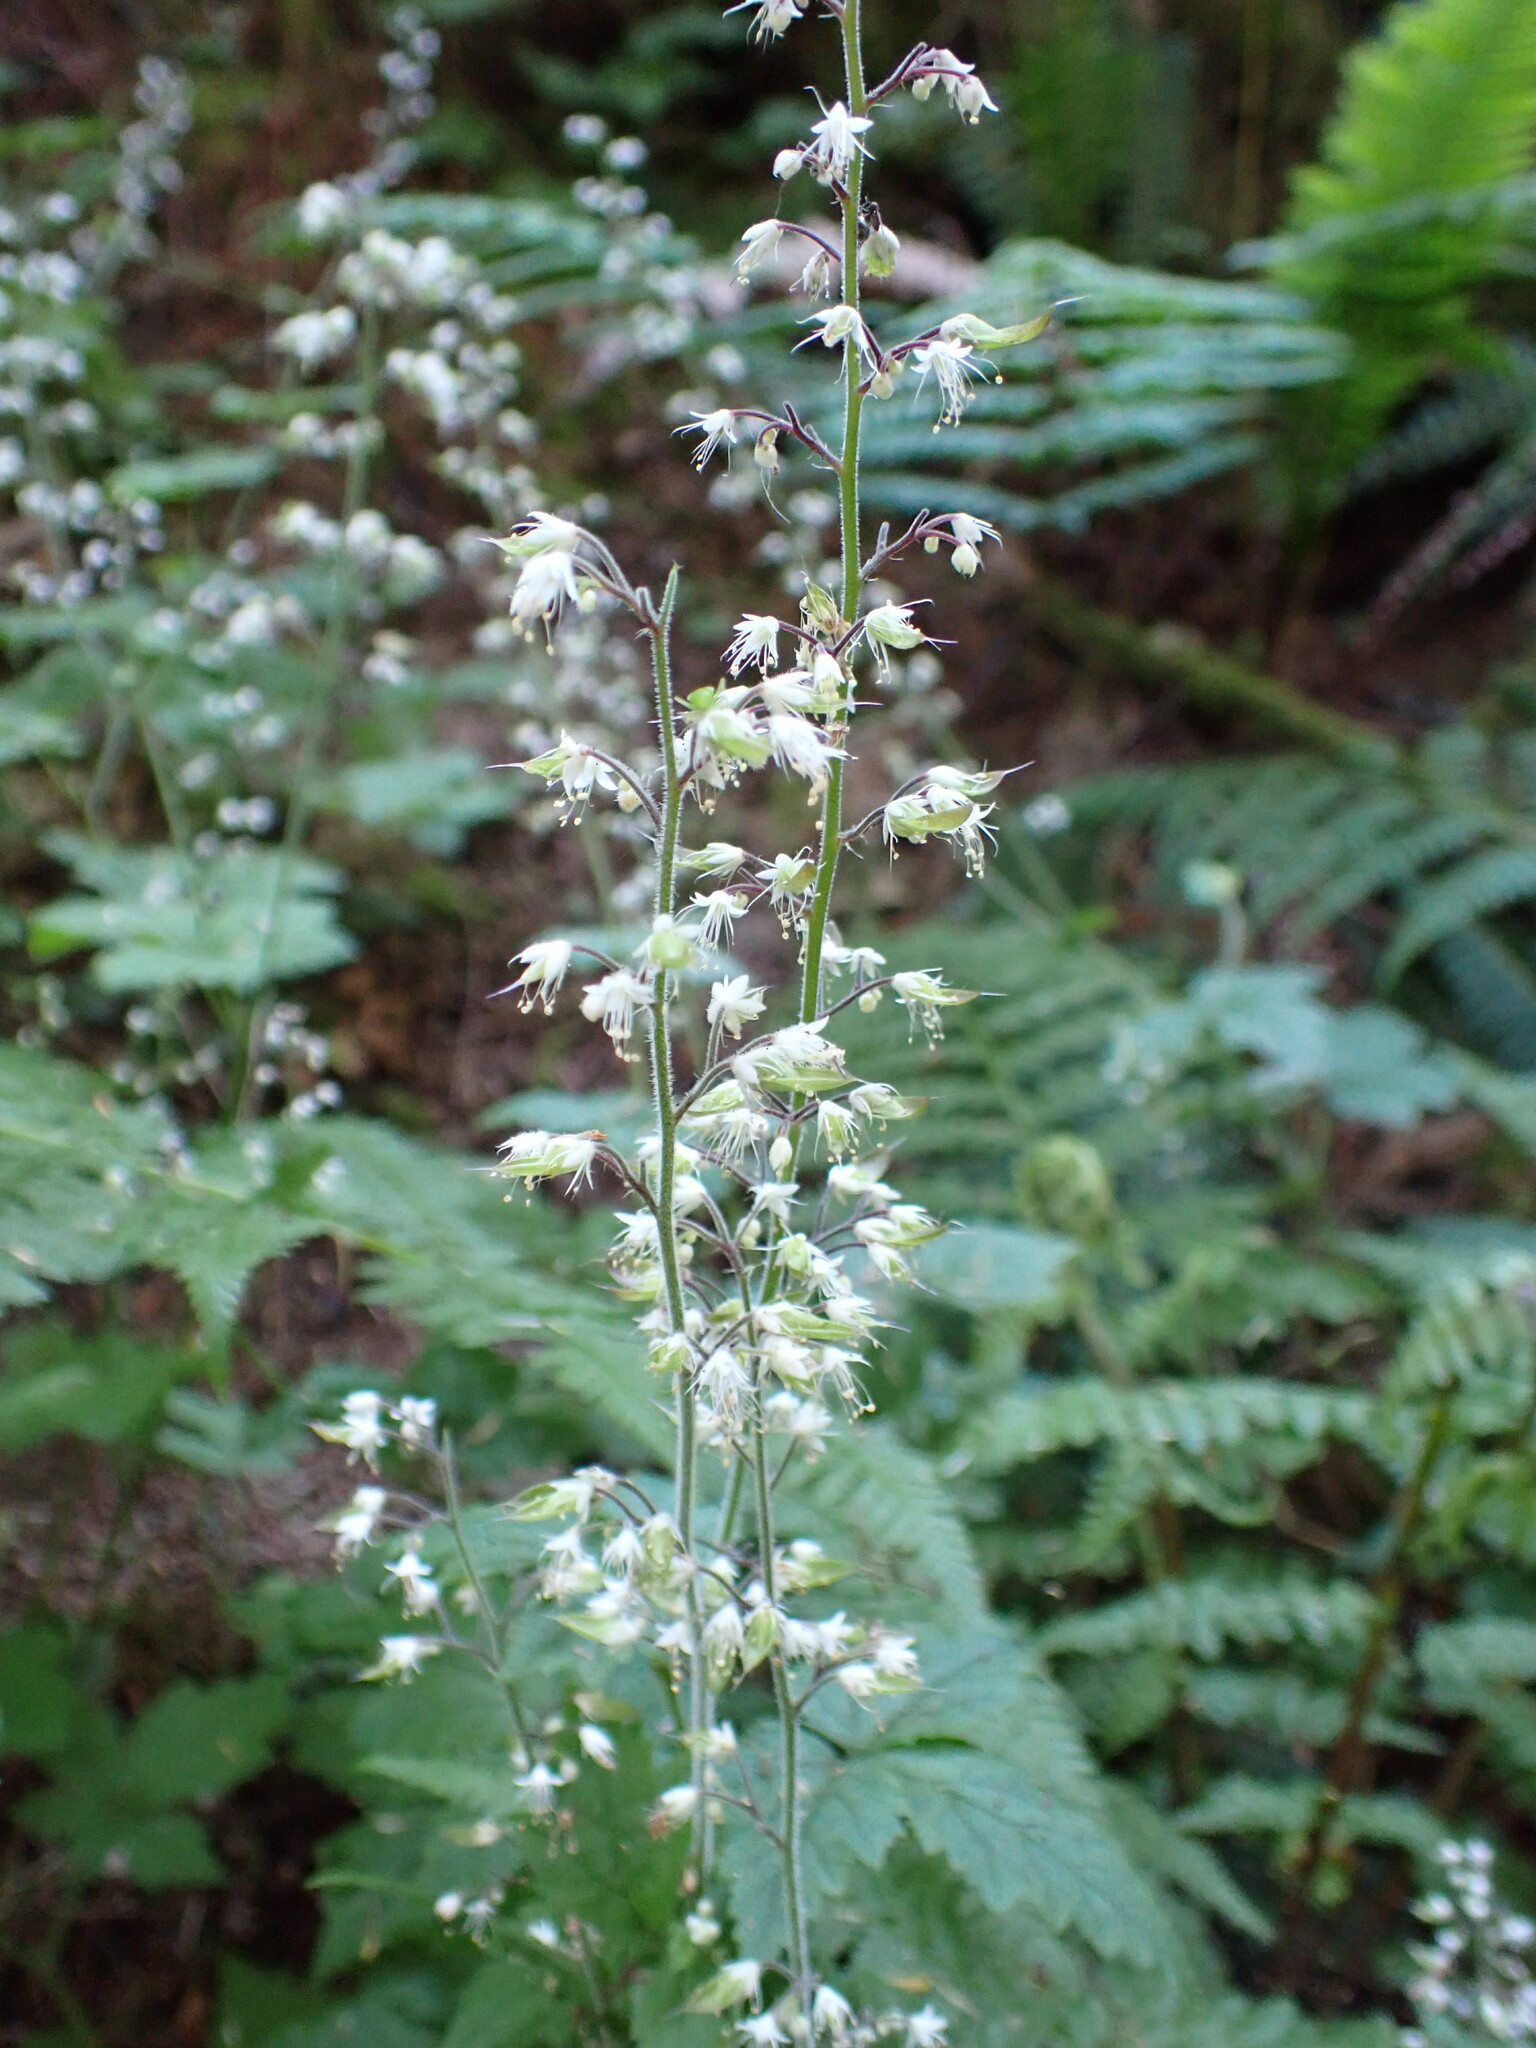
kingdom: Plantae
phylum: Tracheophyta
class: Magnoliopsida
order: Saxifragales
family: Saxifragaceae
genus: Tiarella
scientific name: Tiarella trifoliata
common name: Sugar-scoop
